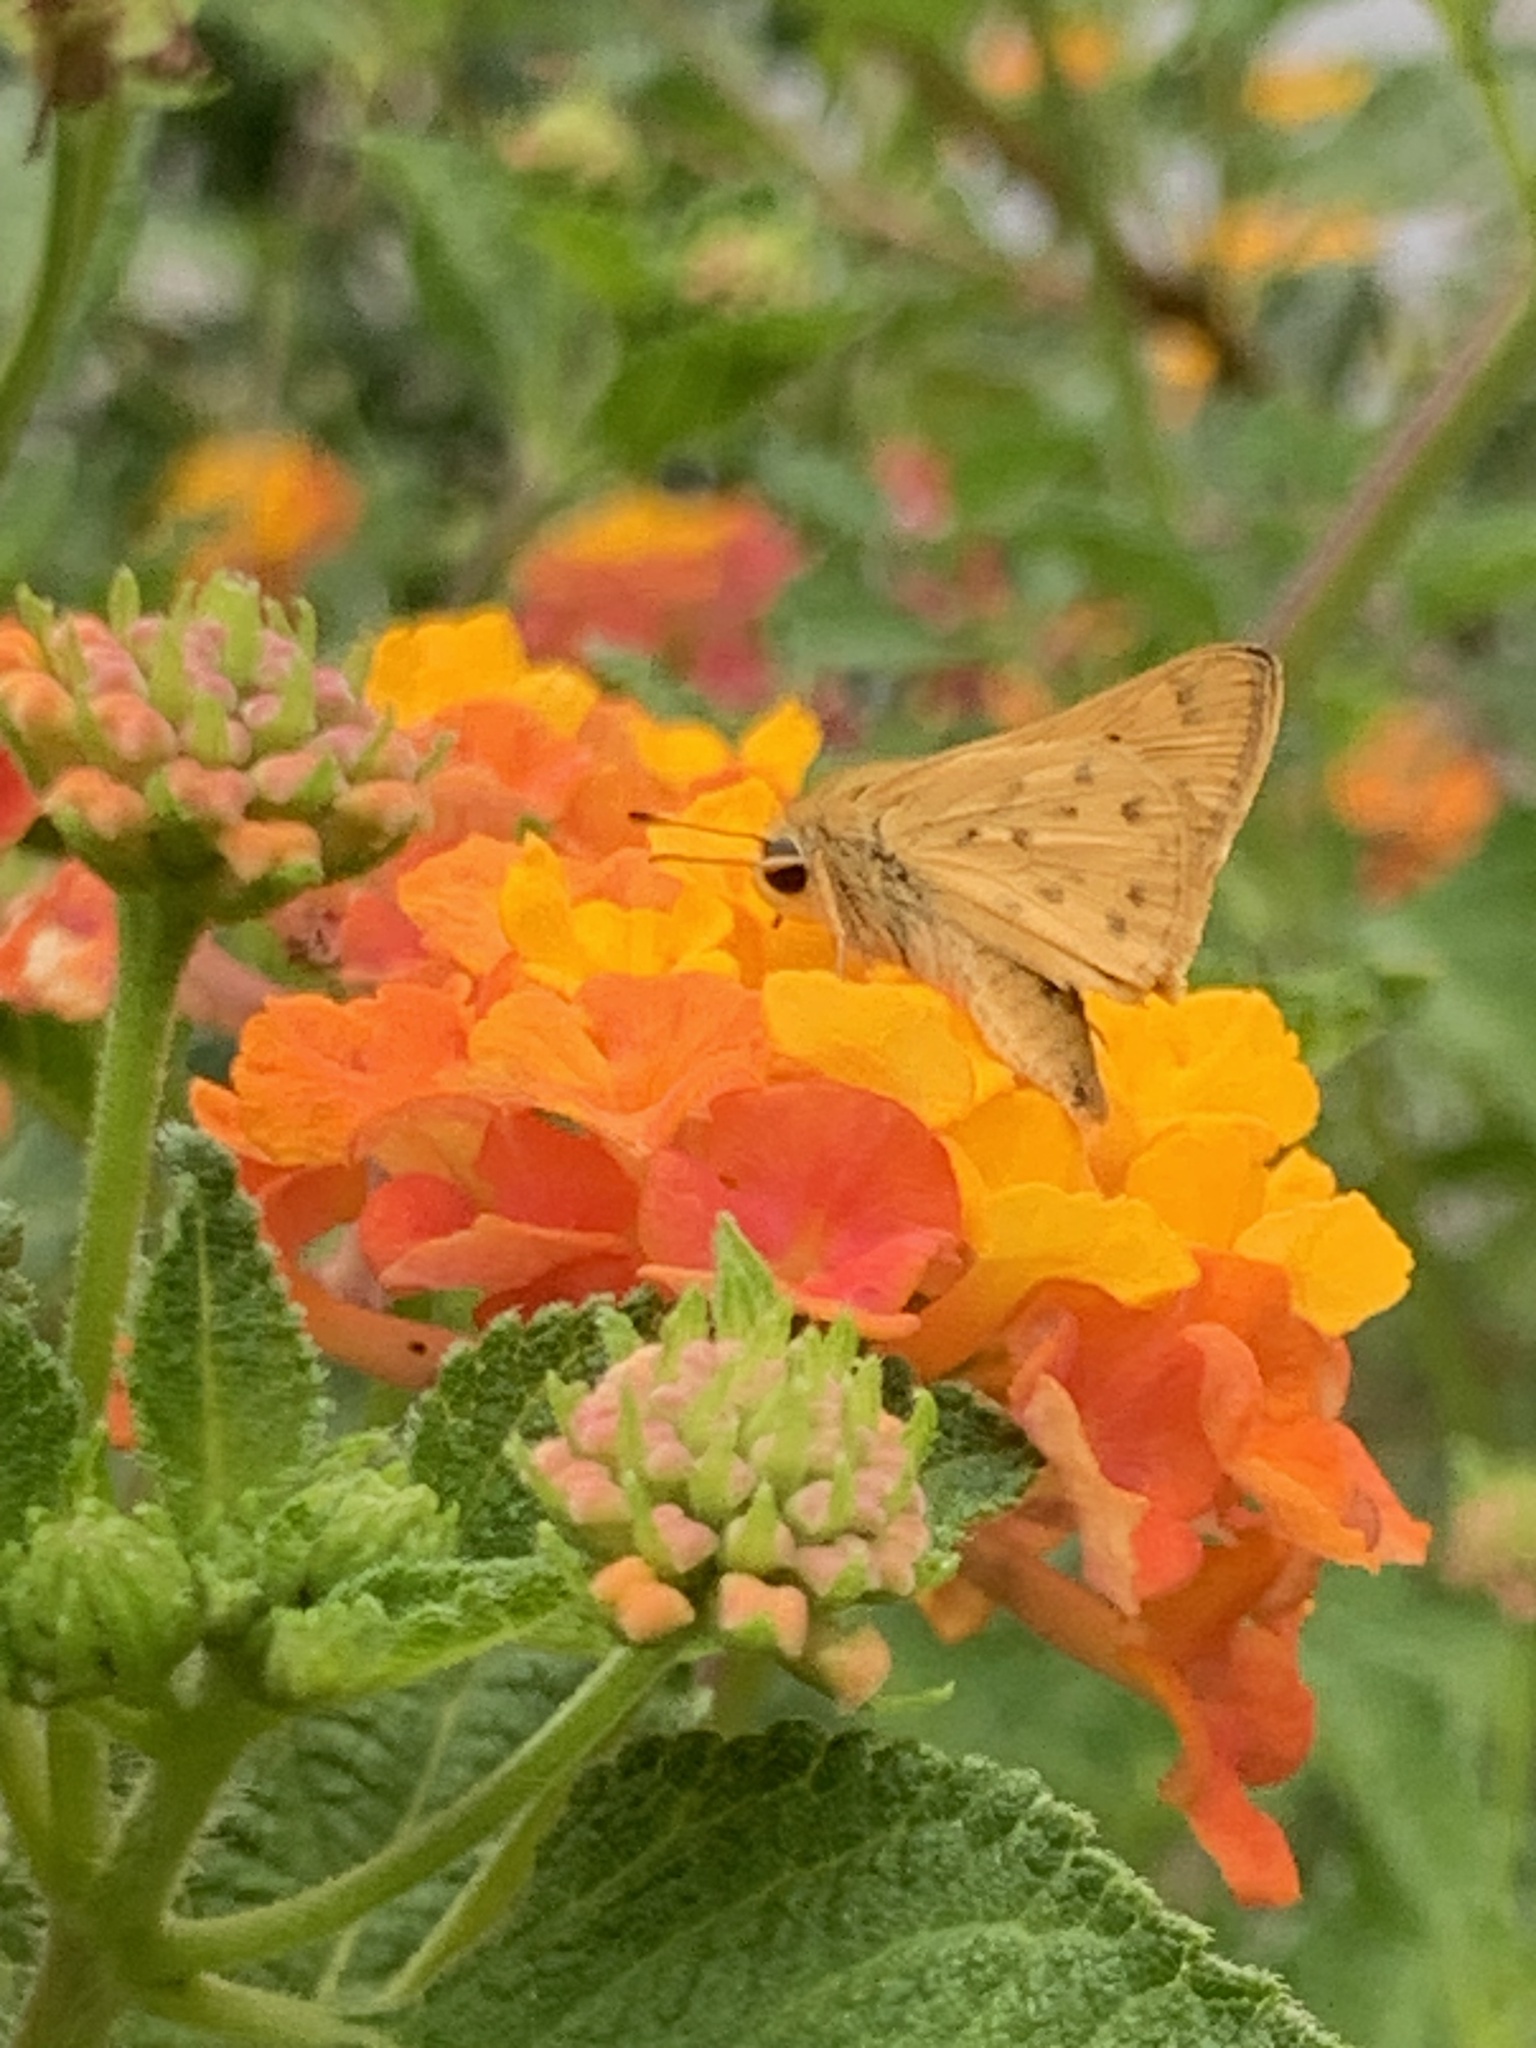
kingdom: Animalia
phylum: Arthropoda
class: Insecta
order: Lepidoptera
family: Hesperiidae
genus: Hylephila
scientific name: Hylephila phyleus
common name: Fiery skipper
